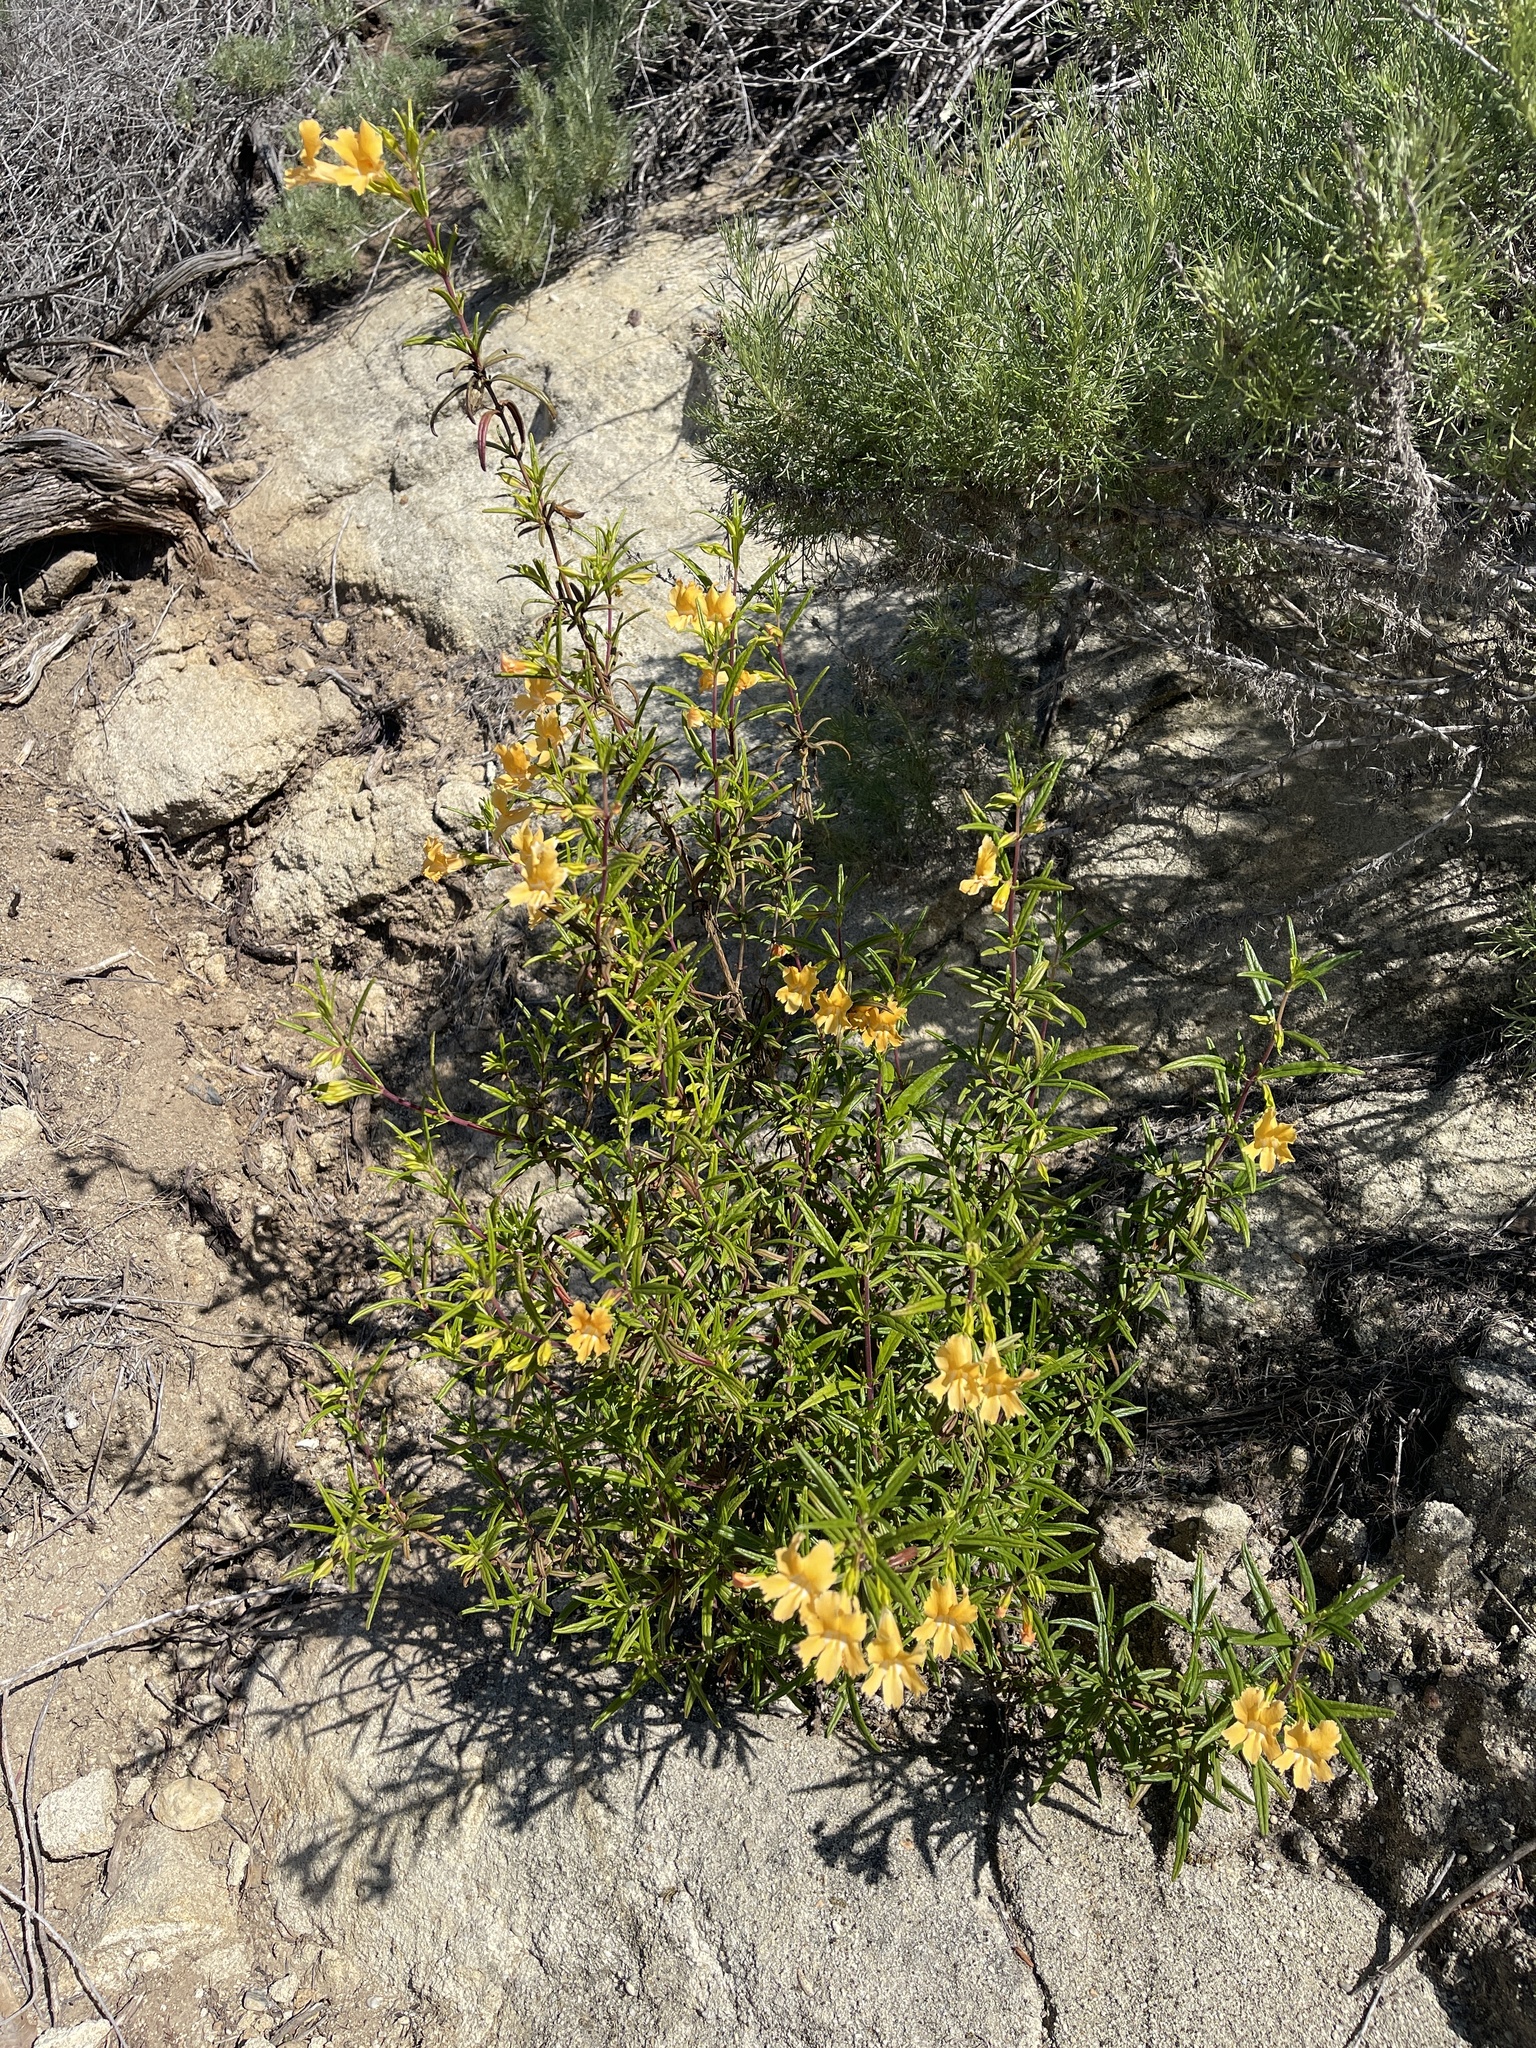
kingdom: Plantae
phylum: Tracheophyta
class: Magnoliopsida
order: Lamiales
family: Phrymaceae
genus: Diplacus
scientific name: Diplacus australis
